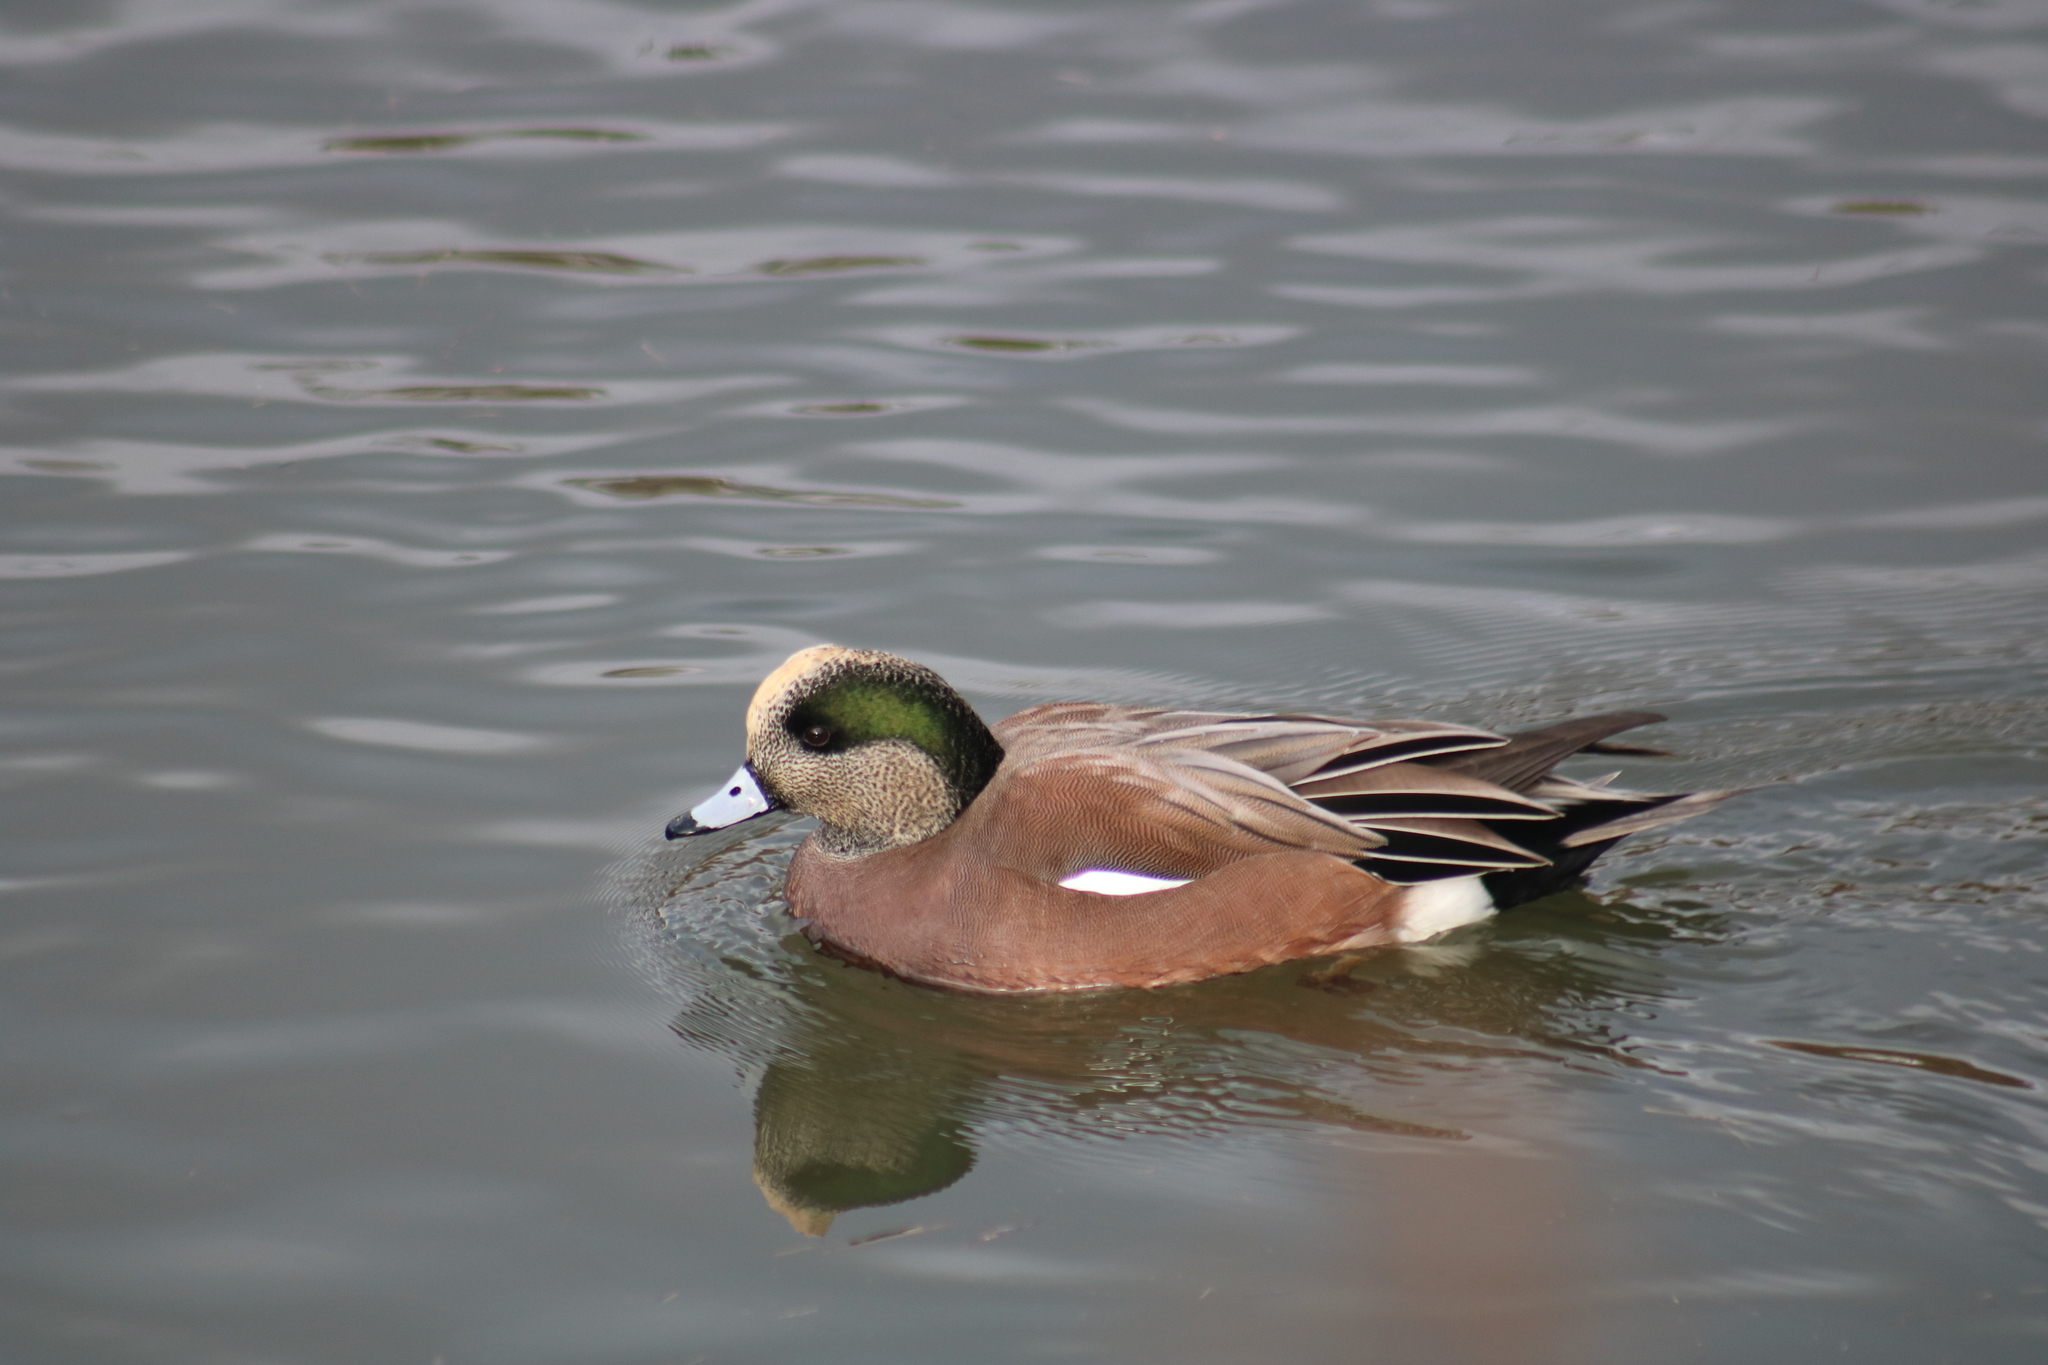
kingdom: Animalia
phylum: Chordata
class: Aves
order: Anseriformes
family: Anatidae
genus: Mareca
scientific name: Mareca americana
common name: American wigeon
